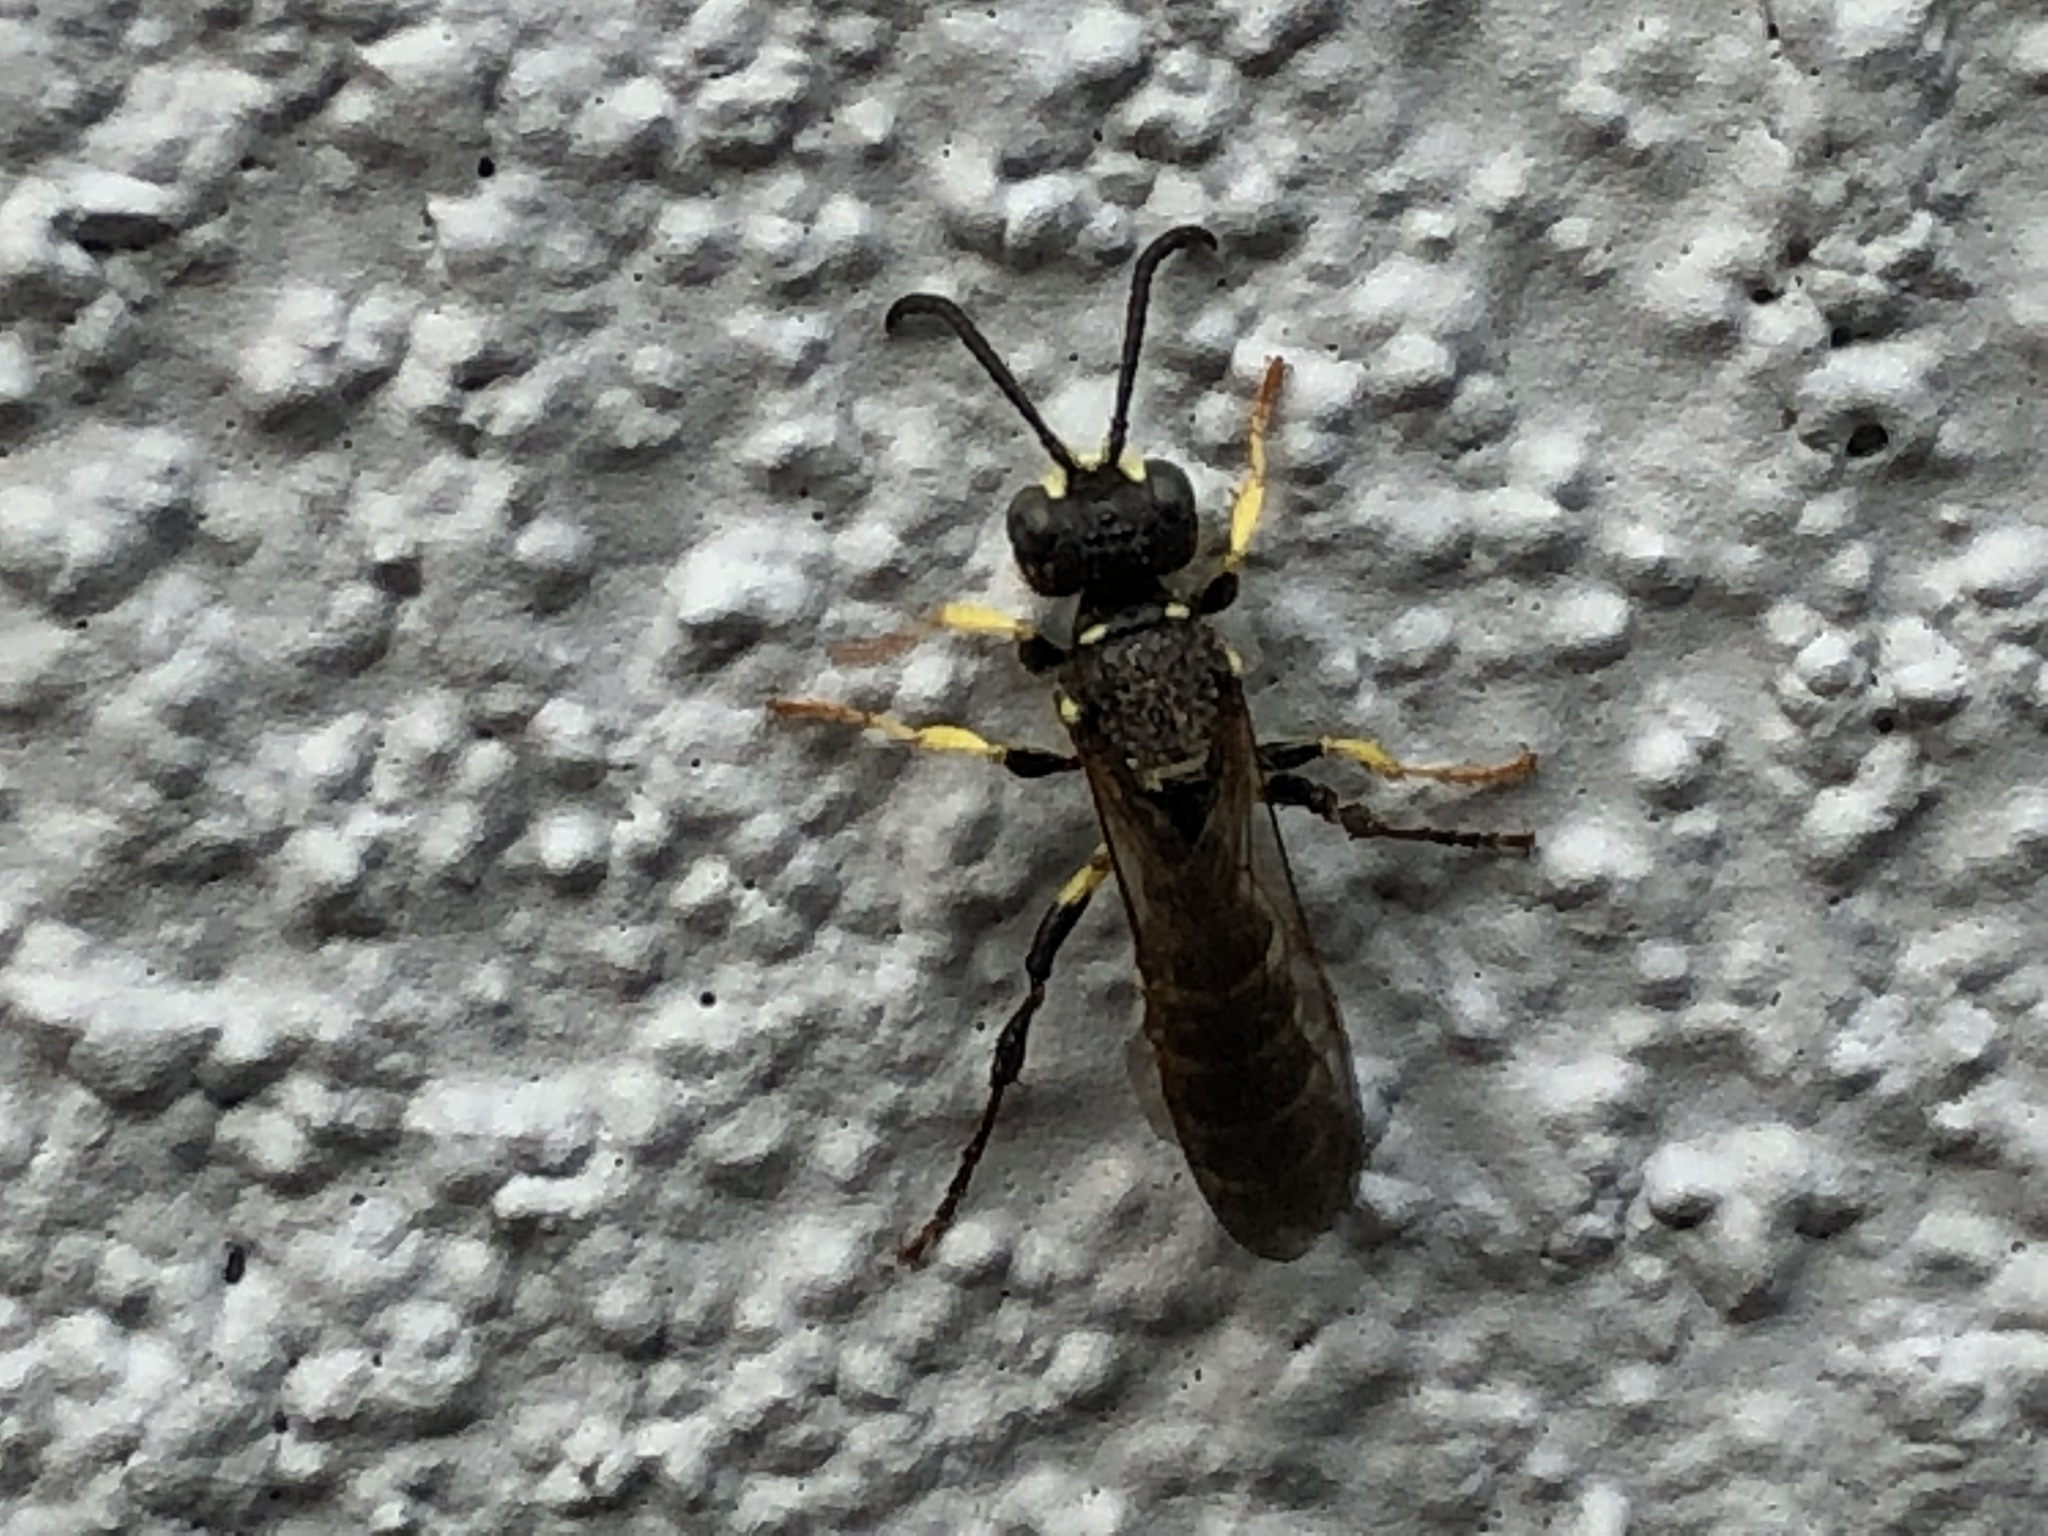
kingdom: Animalia
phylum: Arthropoda
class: Insecta
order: Hymenoptera
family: Crabronidae
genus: Cerceris
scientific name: Cerceris nigrescens
